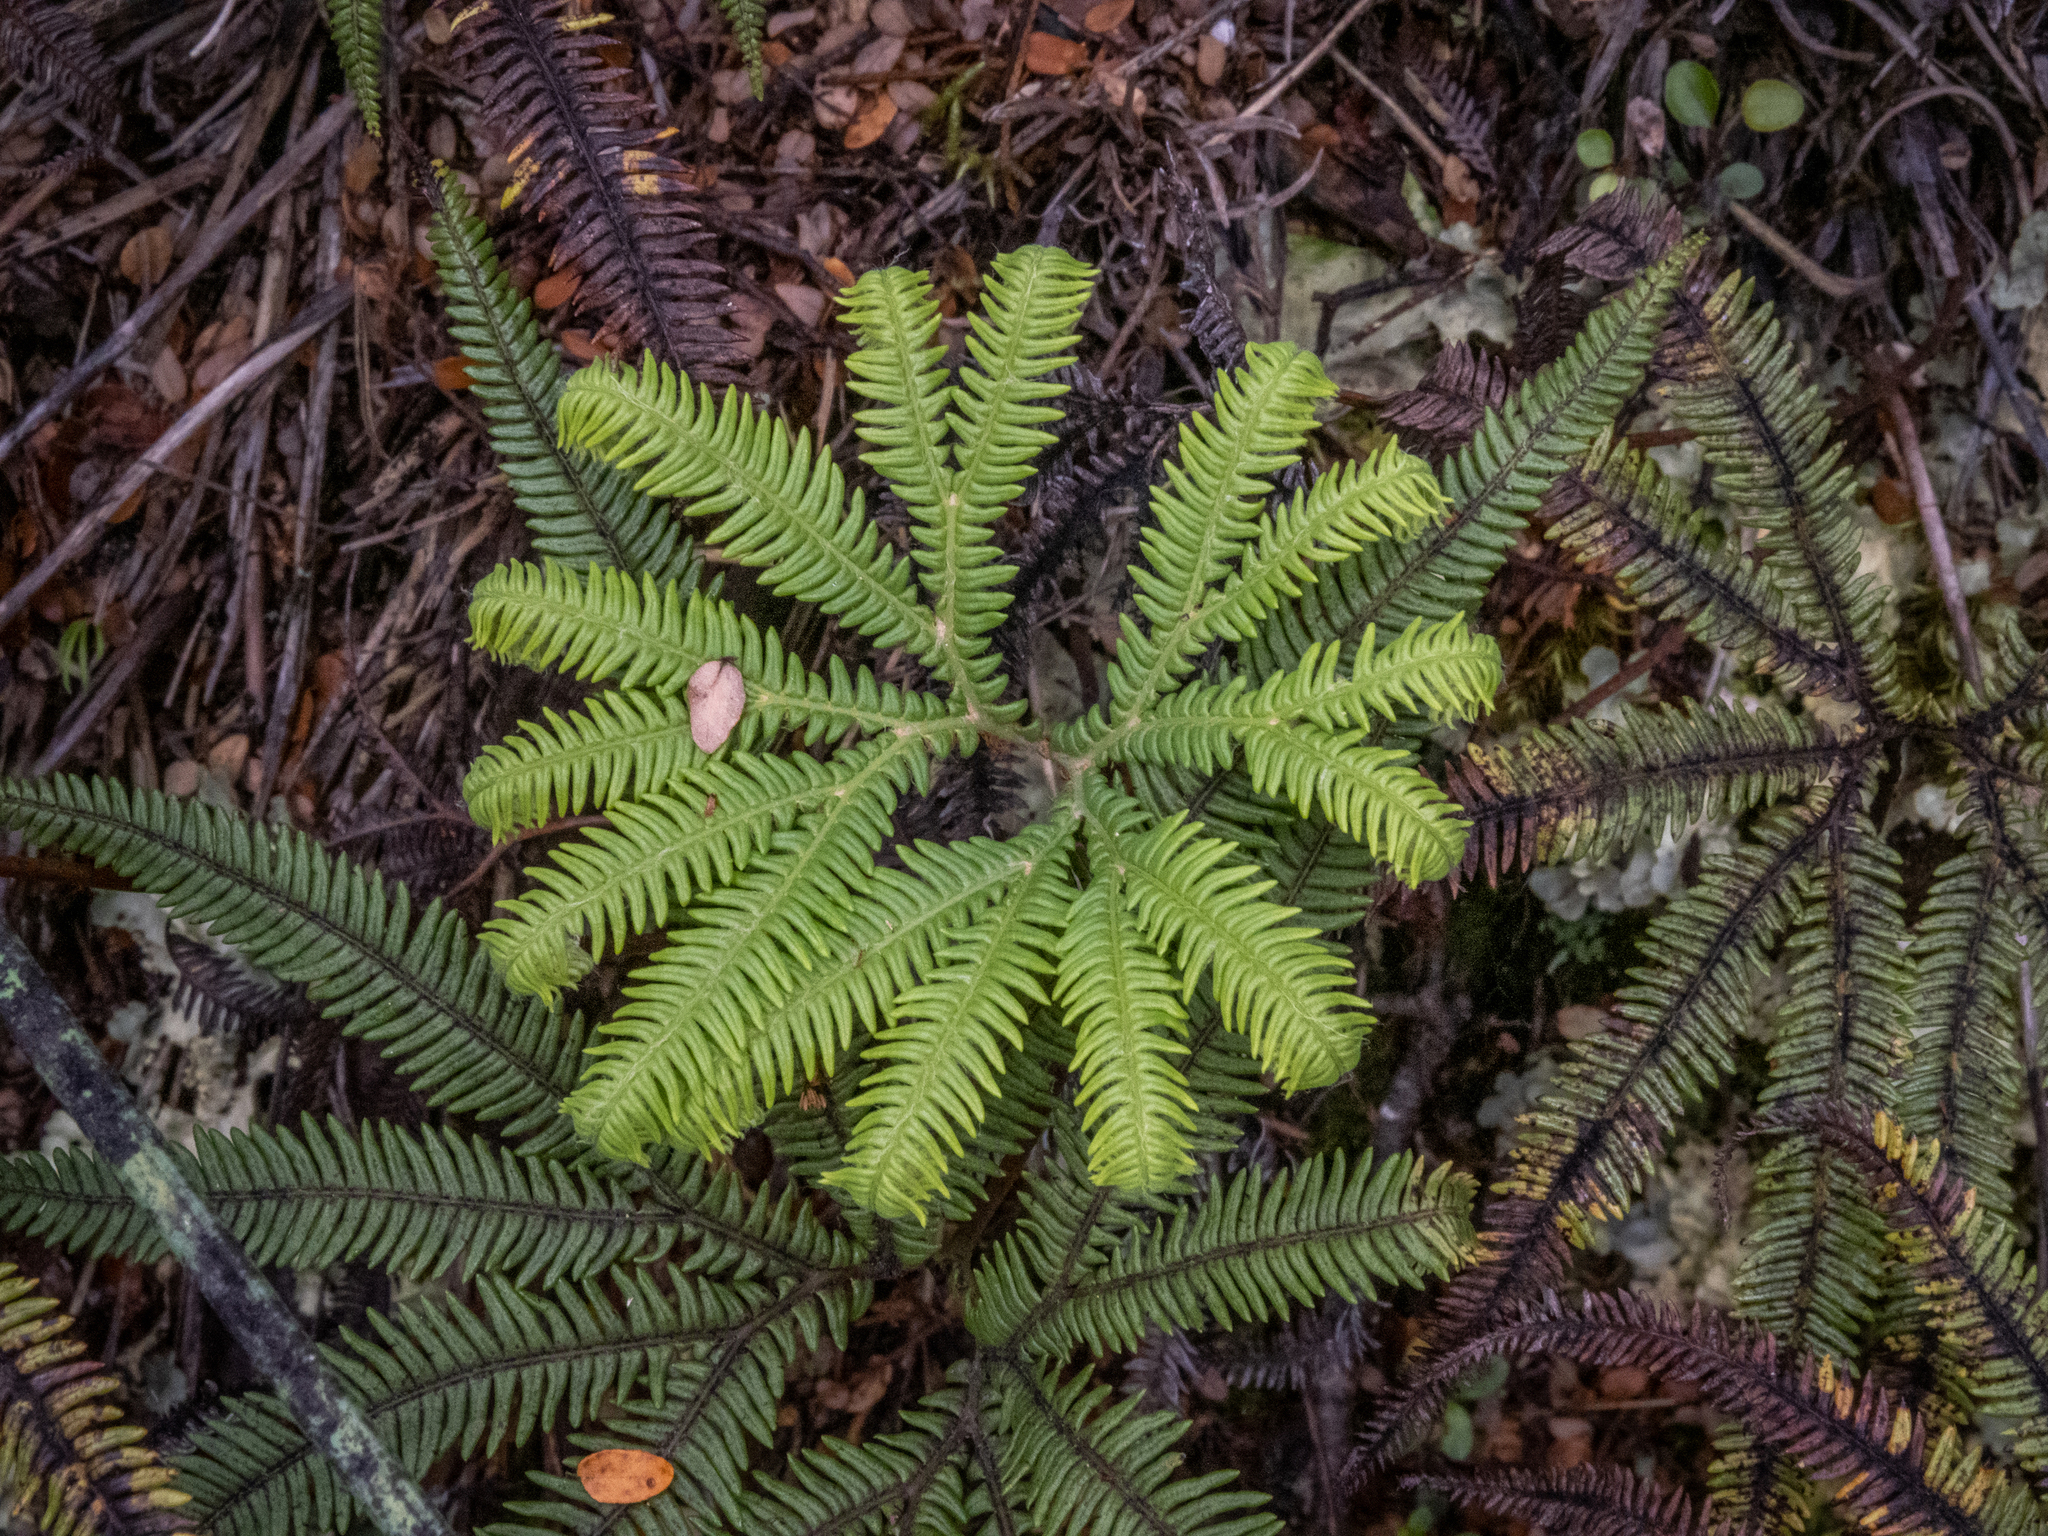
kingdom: Plantae
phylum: Tracheophyta
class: Polypodiopsida
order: Gleicheniales
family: Gleicheniaceae
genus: Sticherus
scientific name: Sticherus cunninghamii
